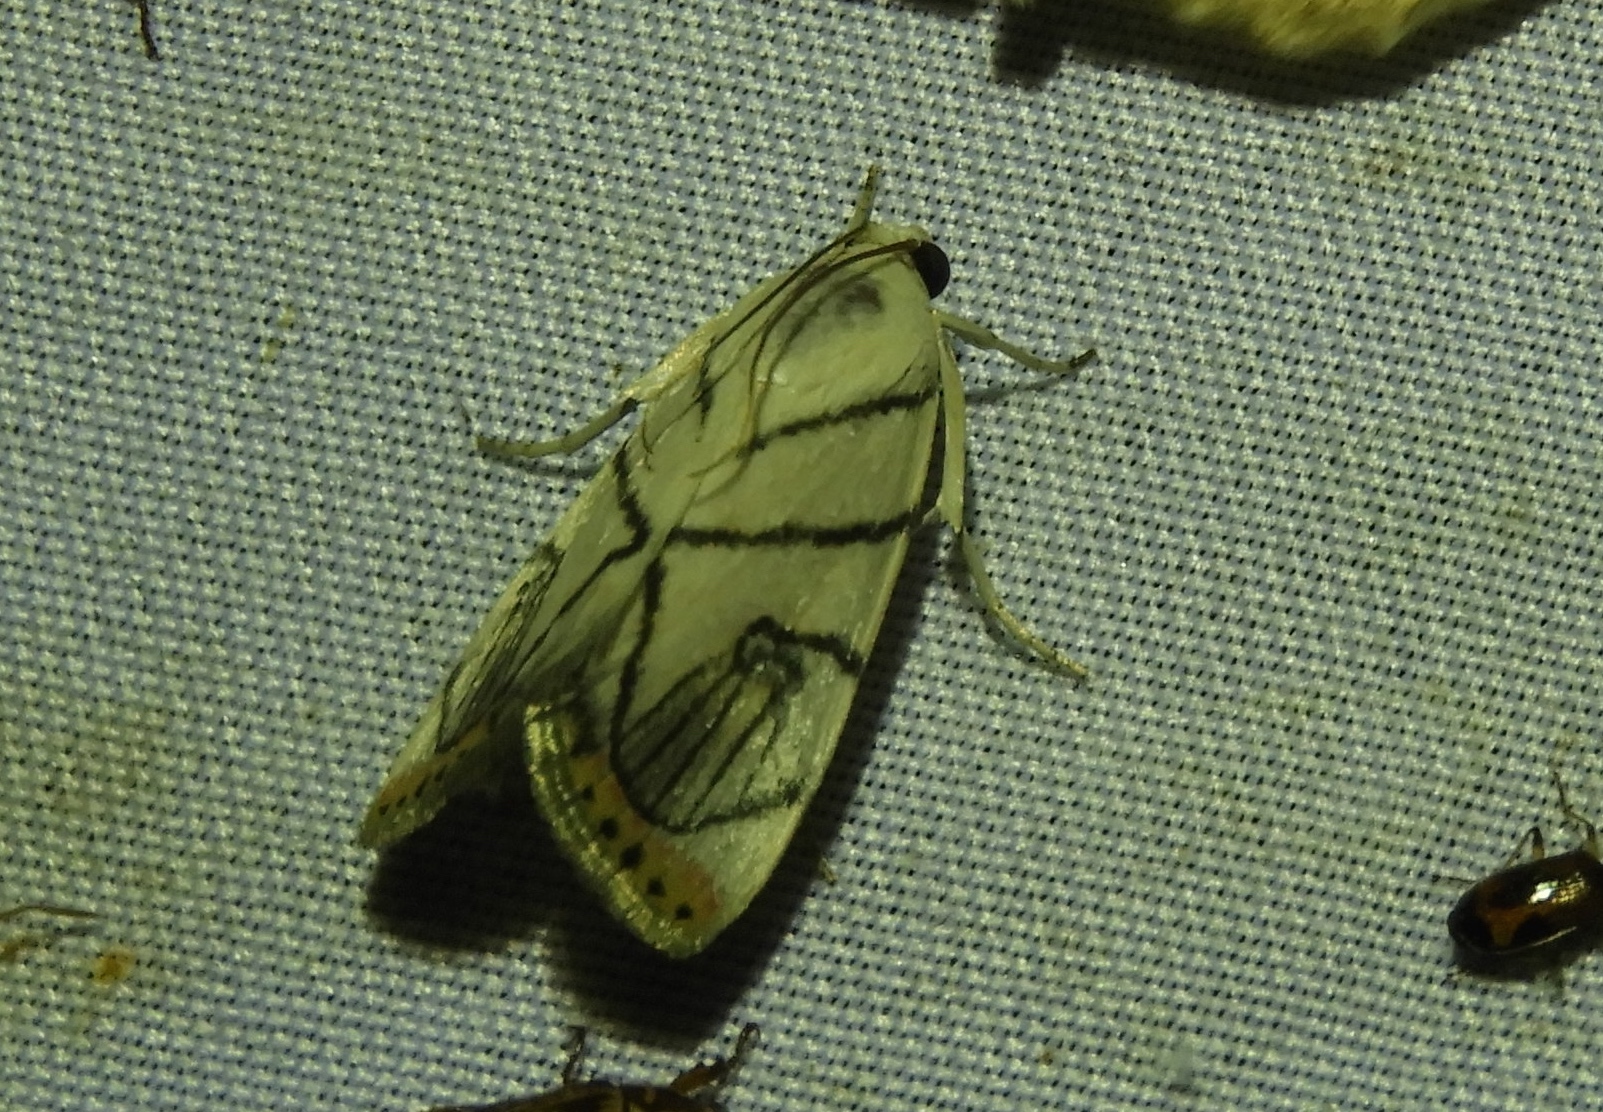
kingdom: Animalia
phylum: Arthropoda
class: Insecta
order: Lepidoptera
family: Crambidae
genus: Dichogama
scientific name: Dichogama gudmanni
